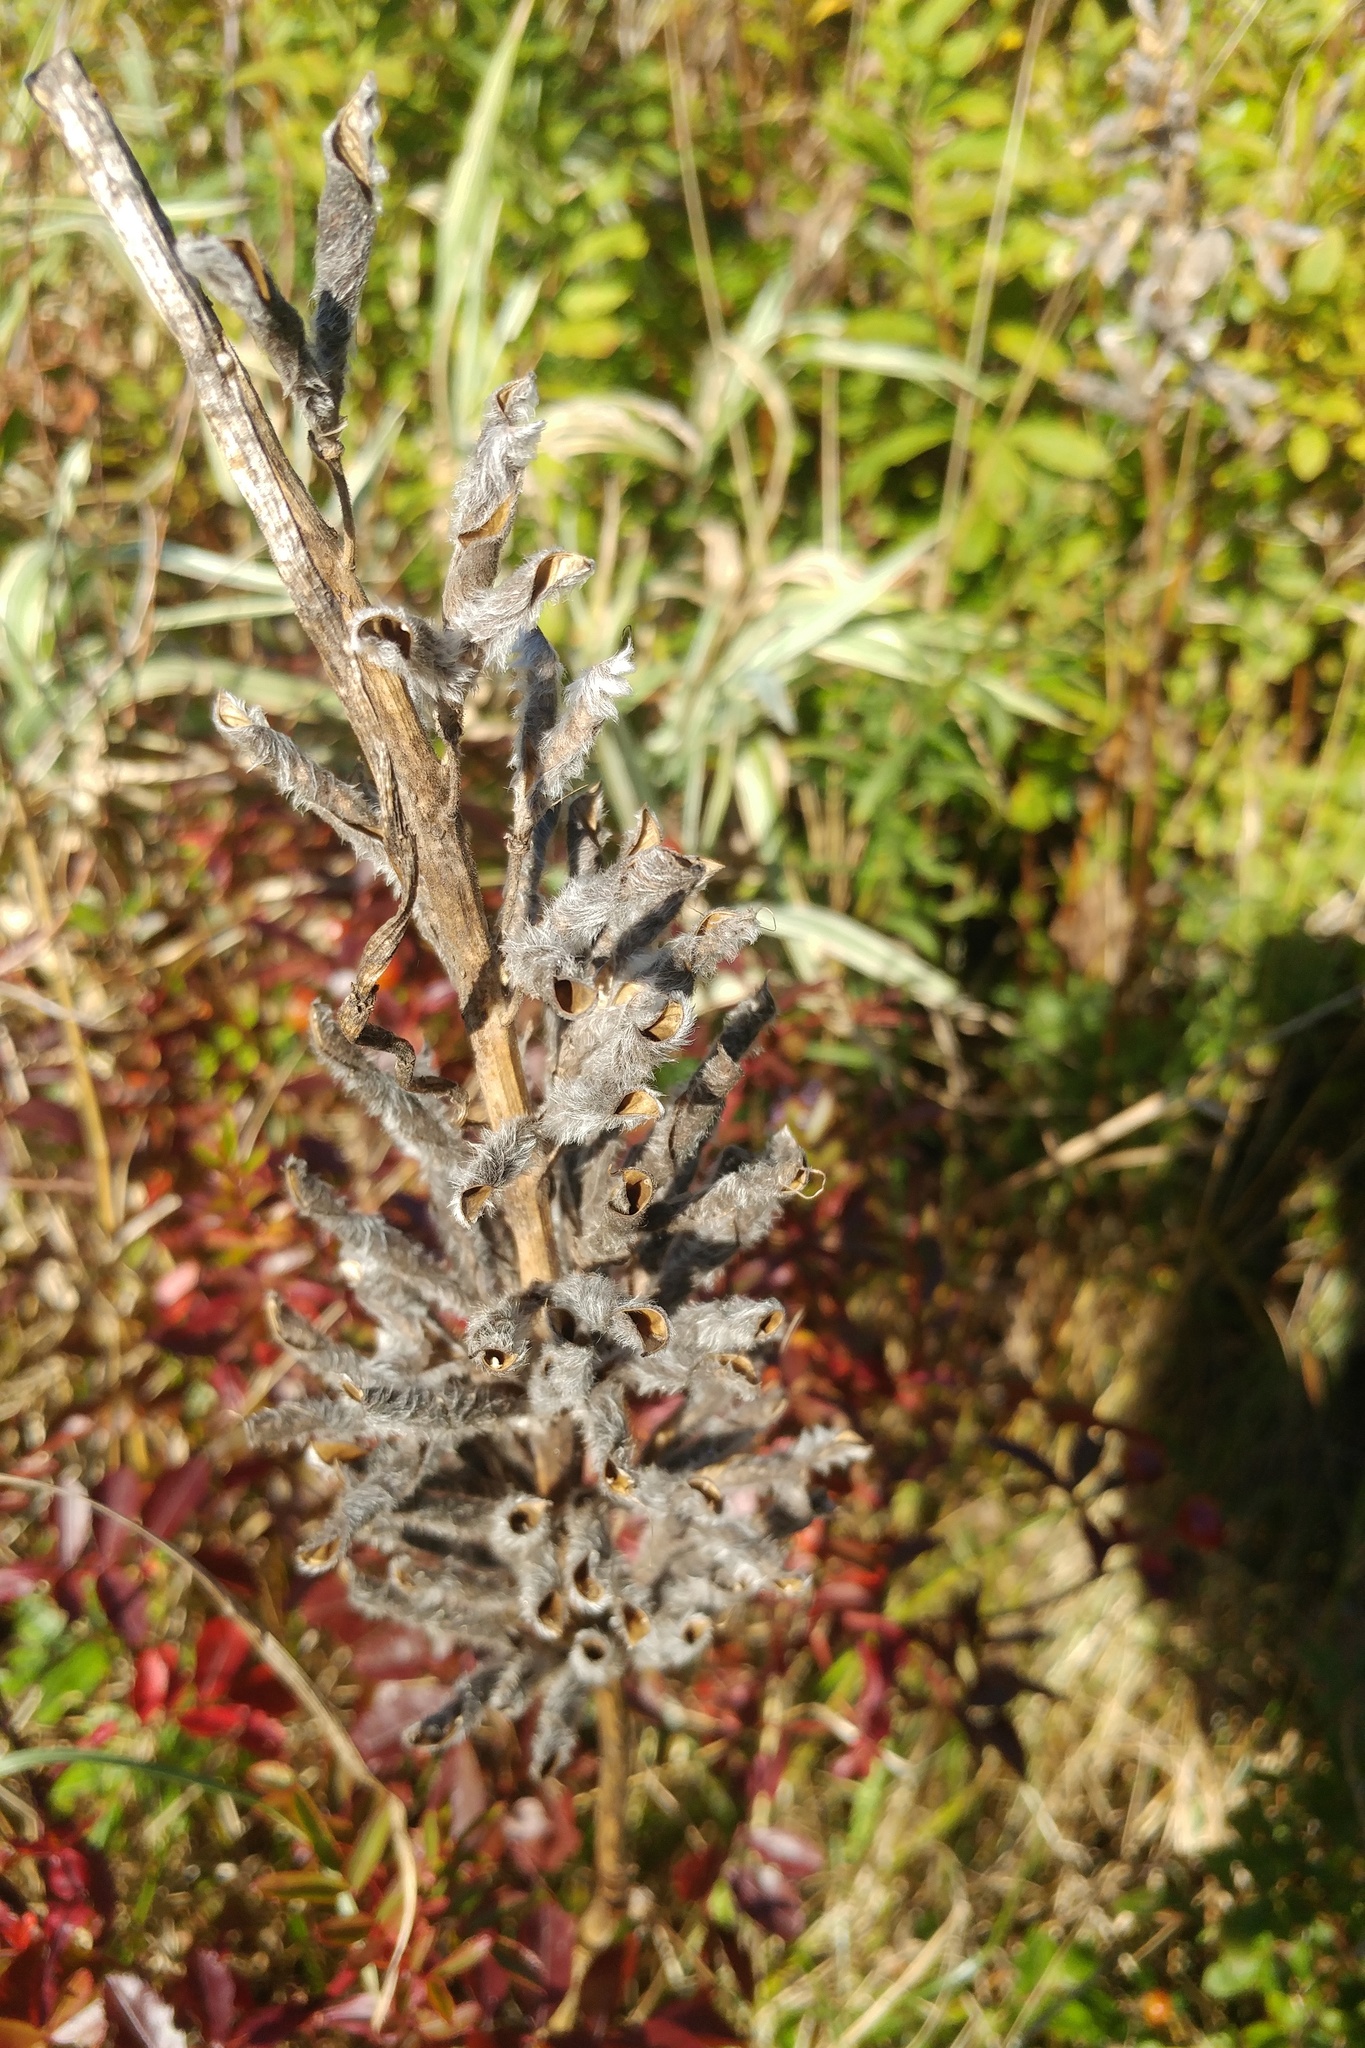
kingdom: Plantae
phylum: Tracheophyta
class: Magnoliopsida
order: Fabales
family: Fabaceae
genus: Lupinus
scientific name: Lupinus polyphyllus
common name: Garden lupin
